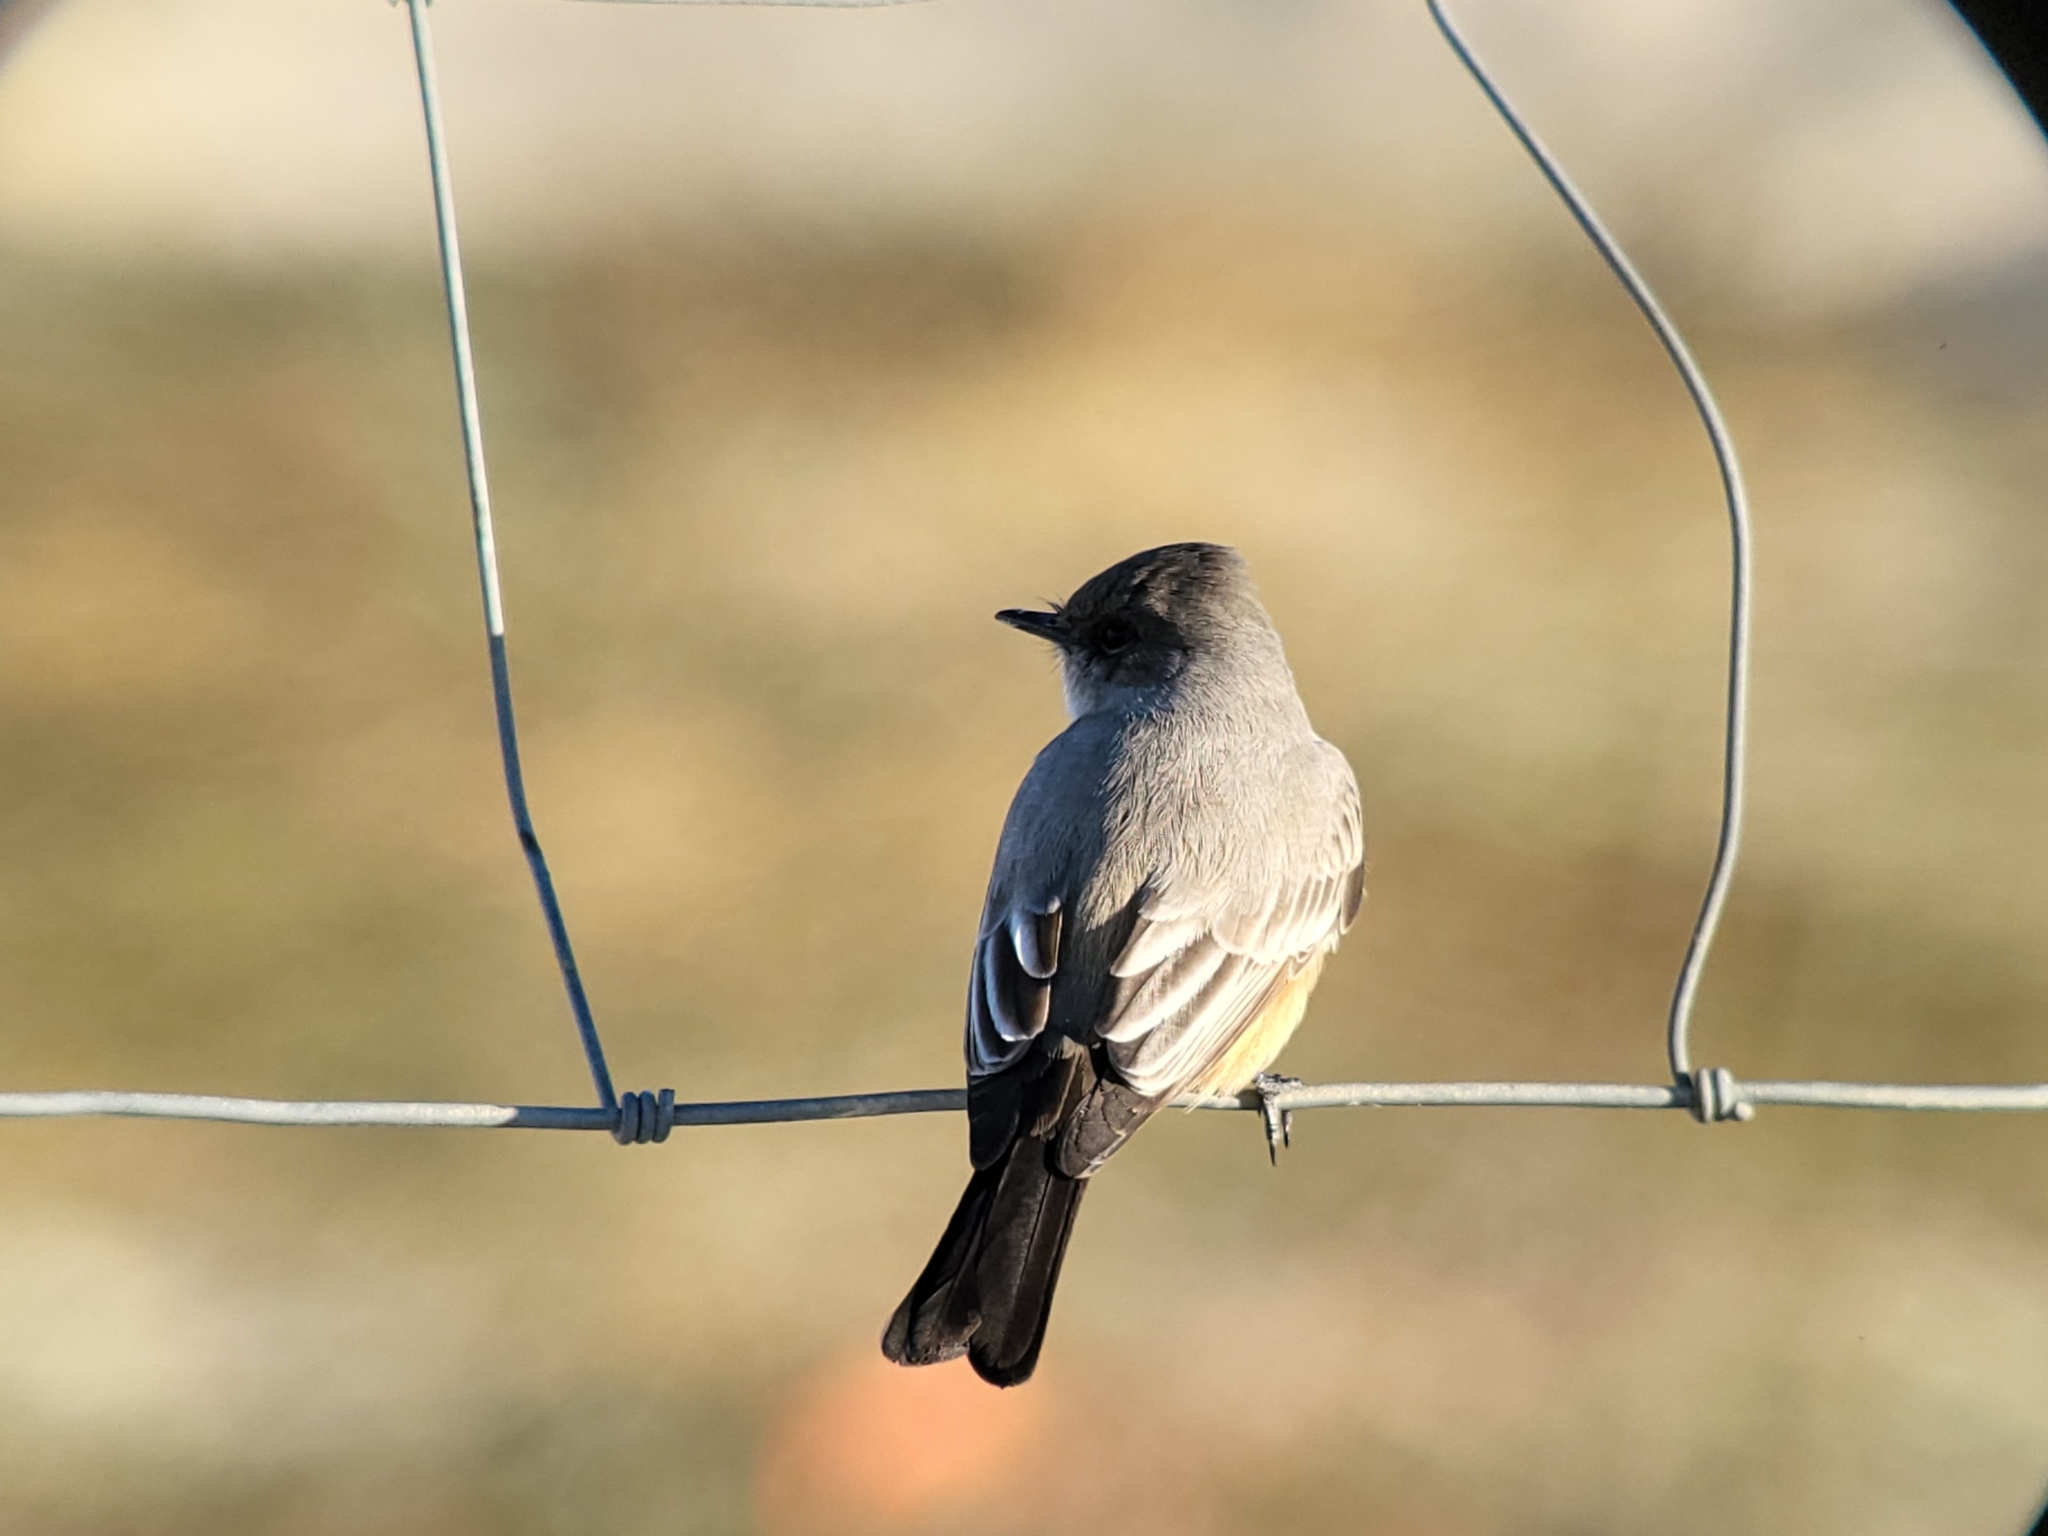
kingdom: Animalia
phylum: Chordata
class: Aves
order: Passeriformes
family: Tyrannidae
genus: Sayornis
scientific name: Sayornis saya
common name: Say's phoebe
